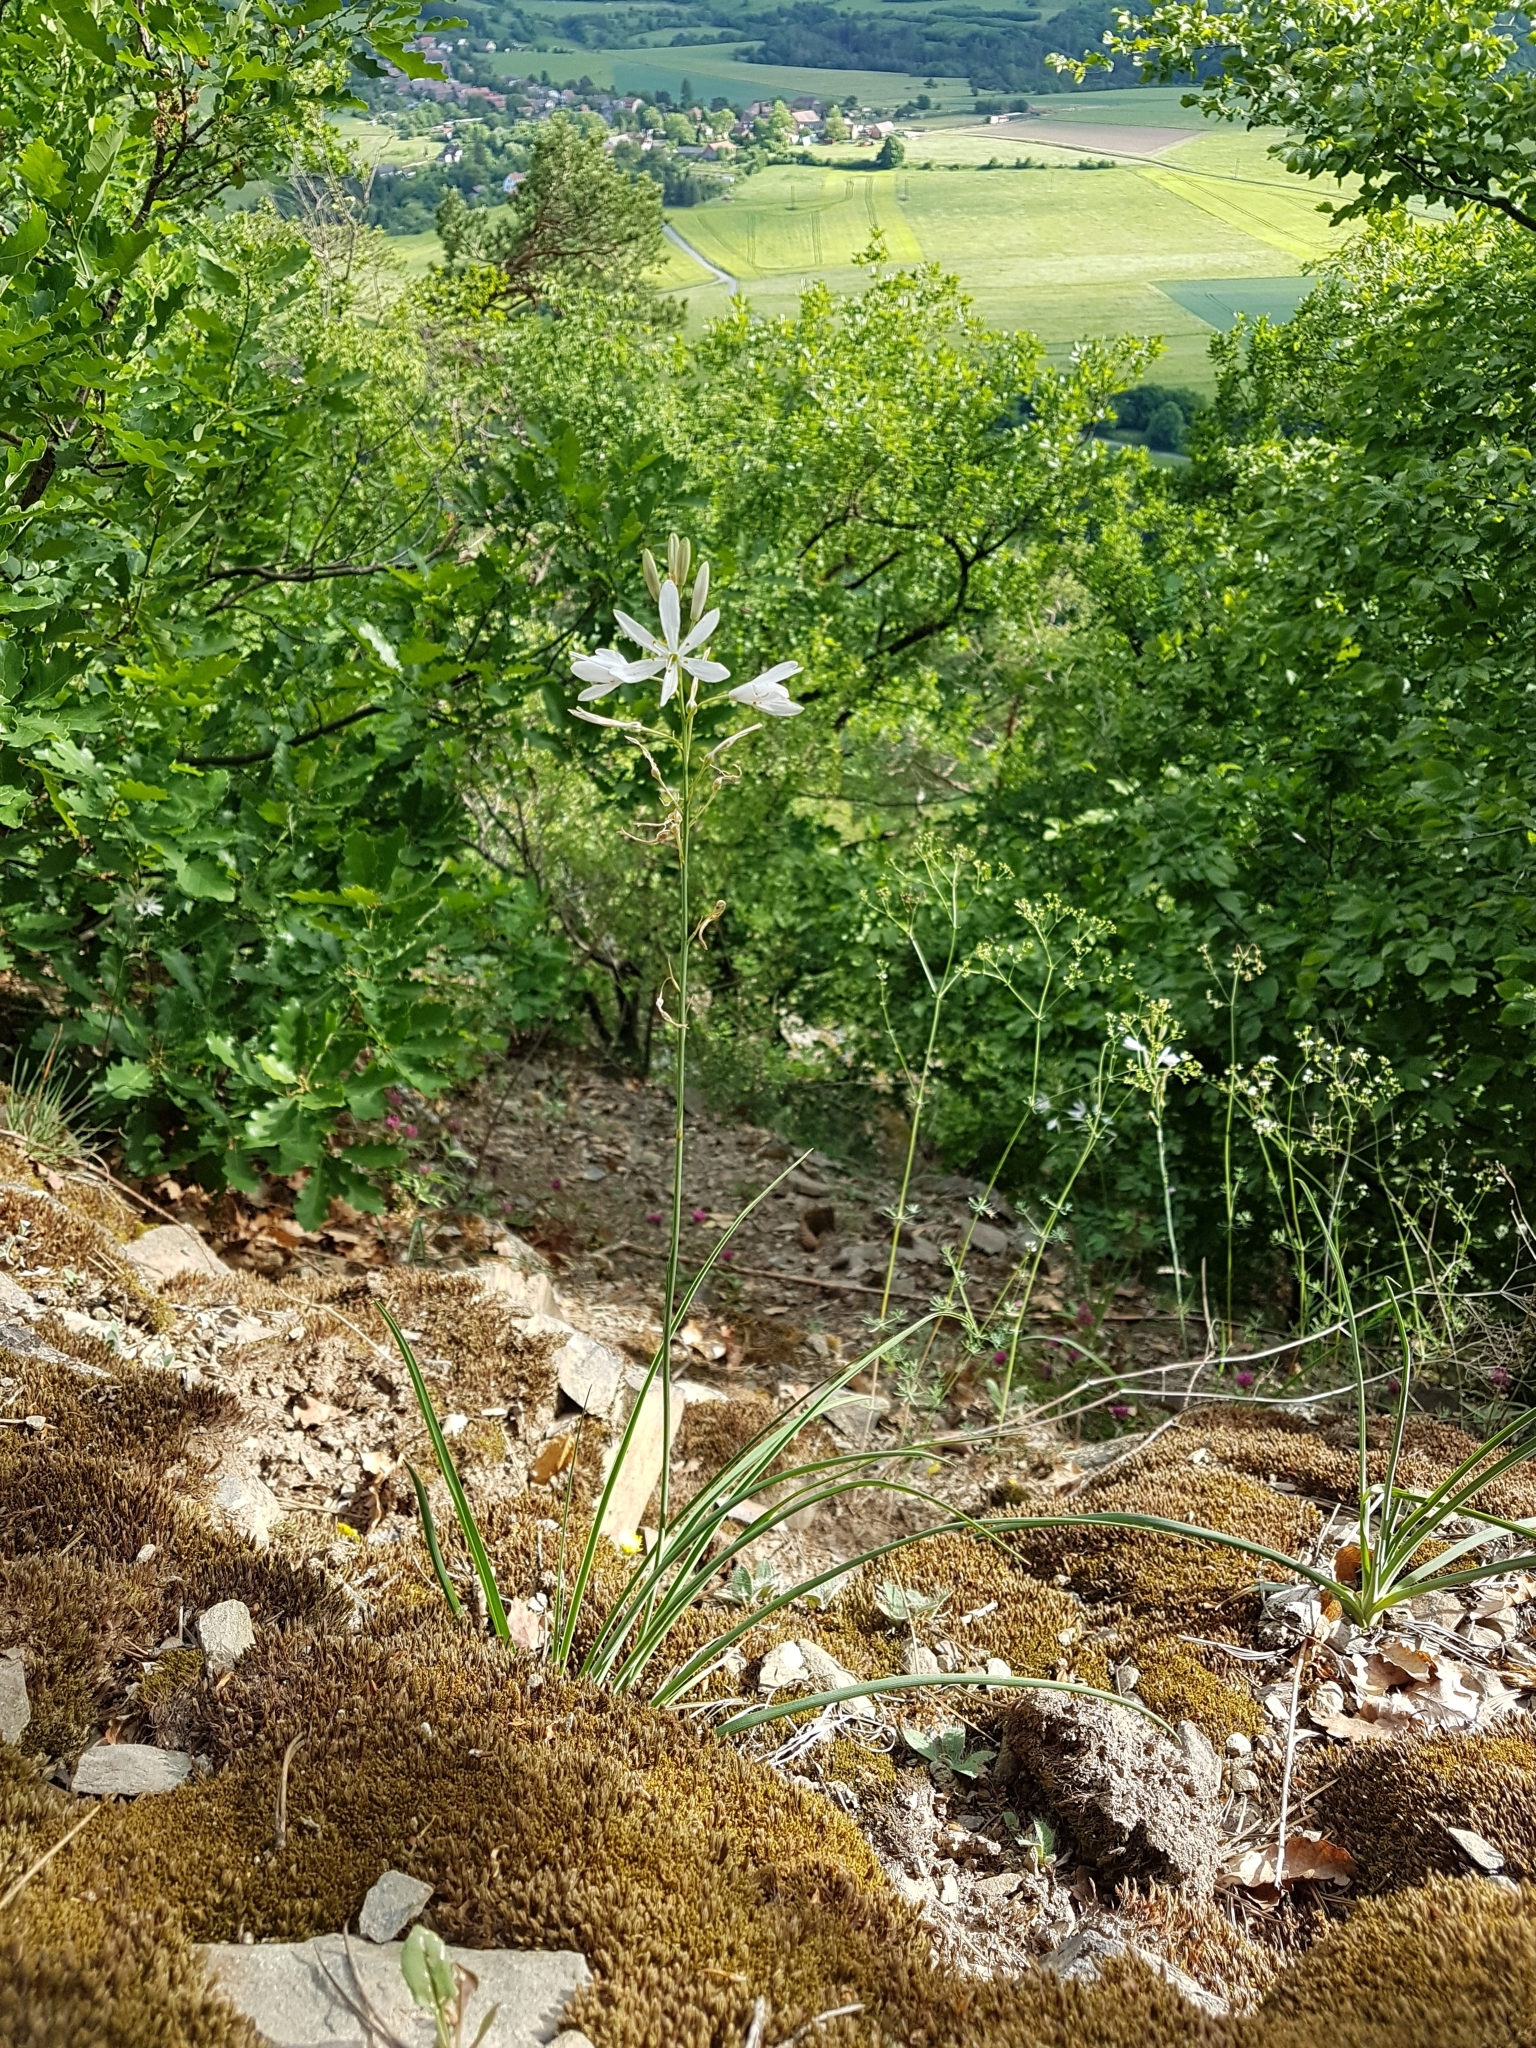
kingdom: Plantae
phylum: Tracheophyta
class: Liliopsida
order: Asparagales
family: Asparagaceae
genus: Anthericum
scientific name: Anthericum liliago
